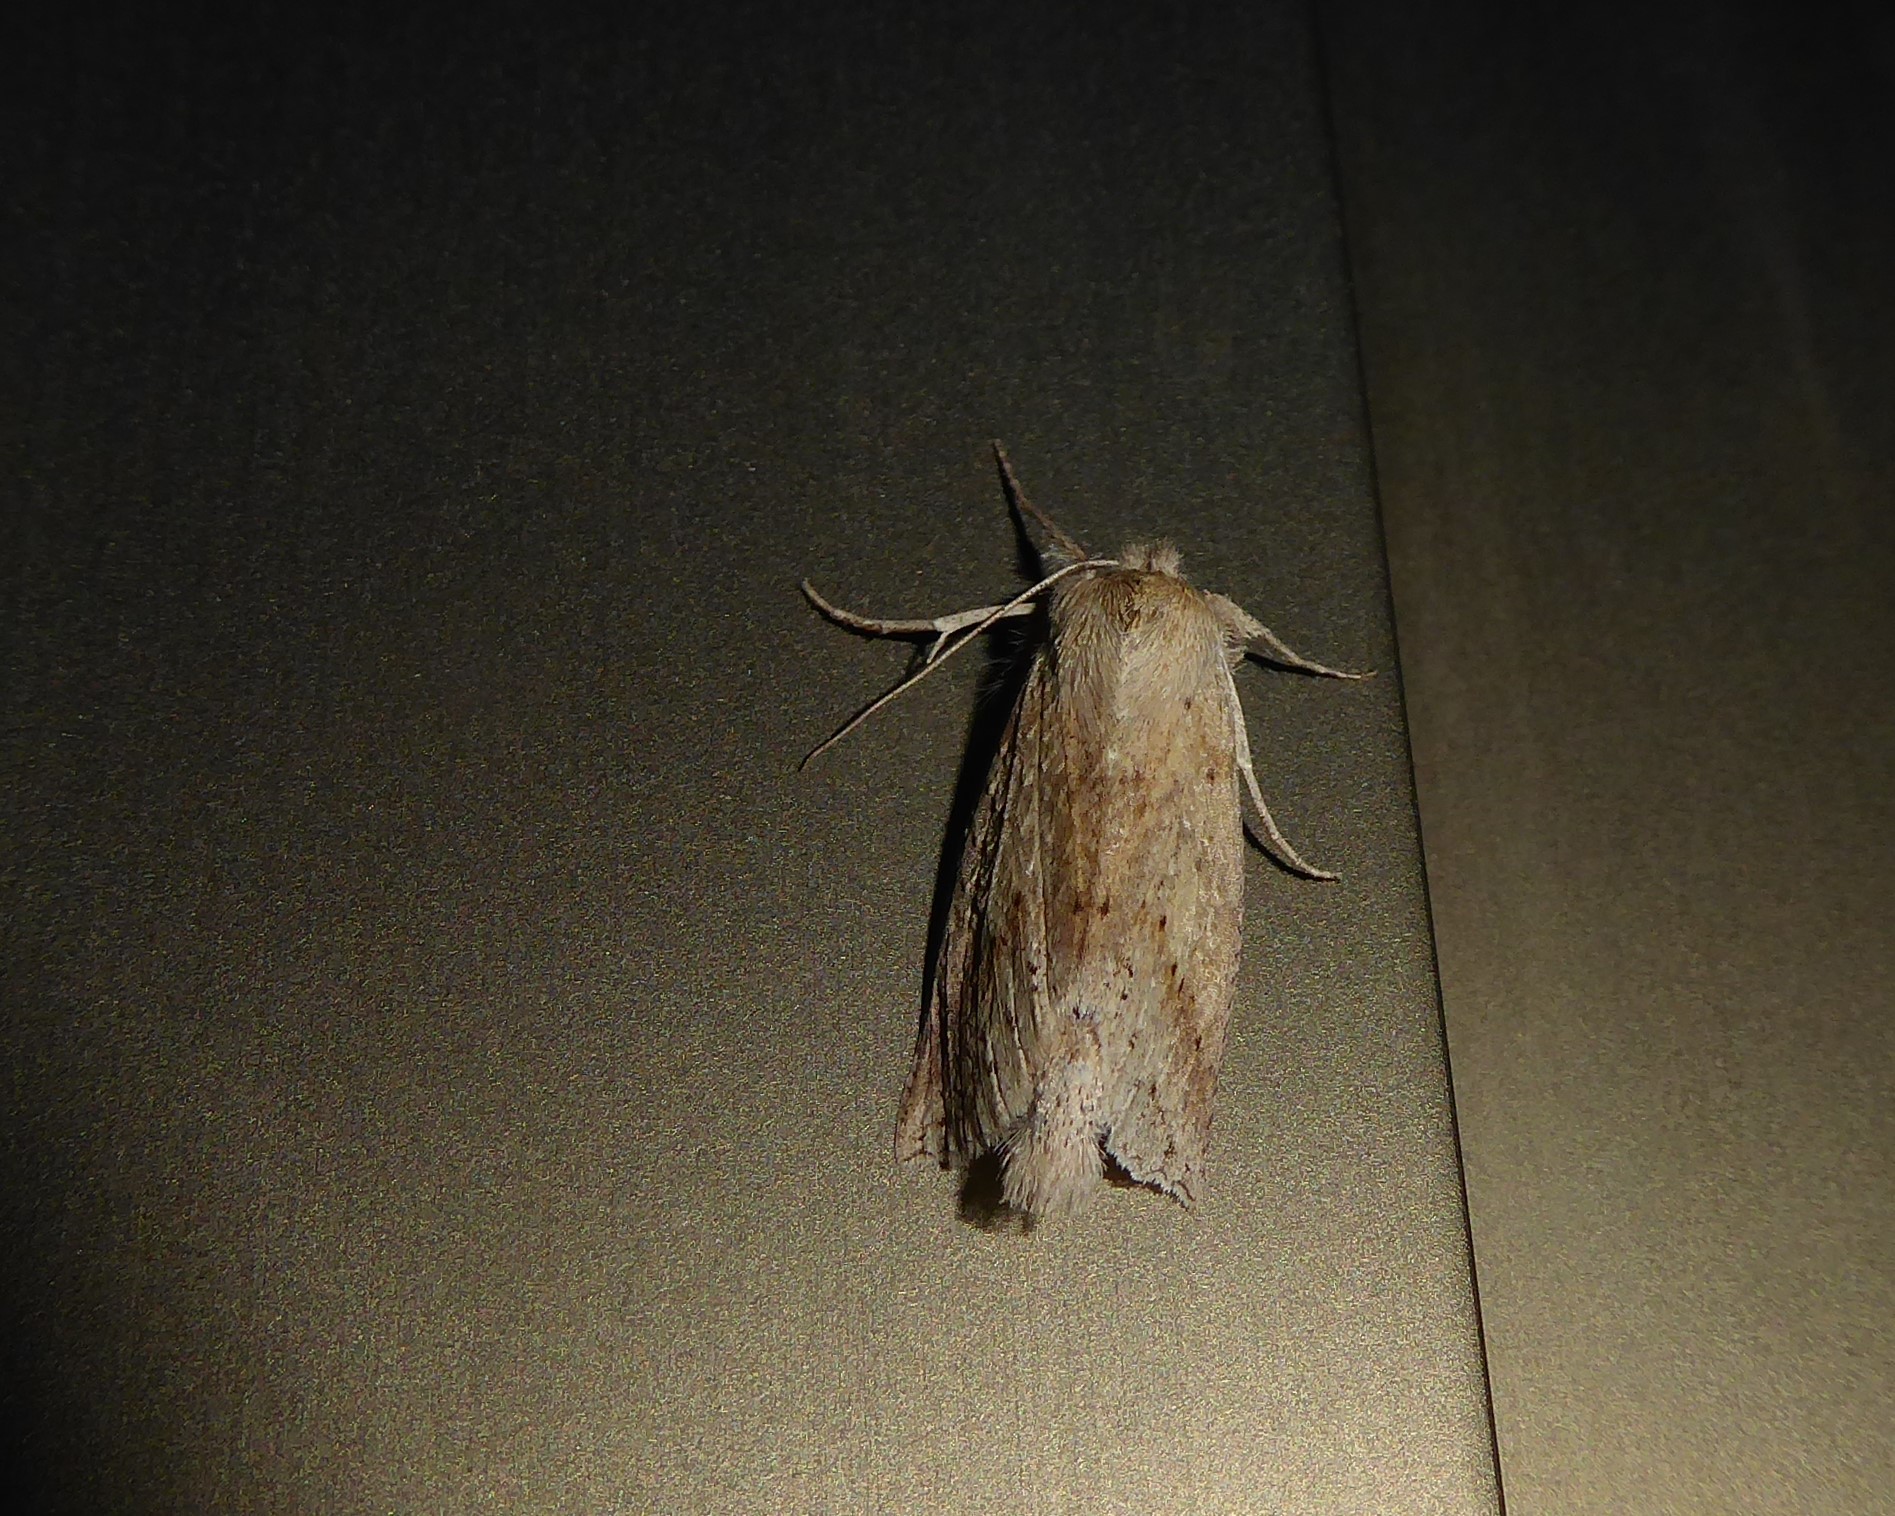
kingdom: Animalia
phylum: Arthropoda
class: Insecta
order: Lepidoptera
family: Geometridae
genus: Declana
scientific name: Declana leptomera
